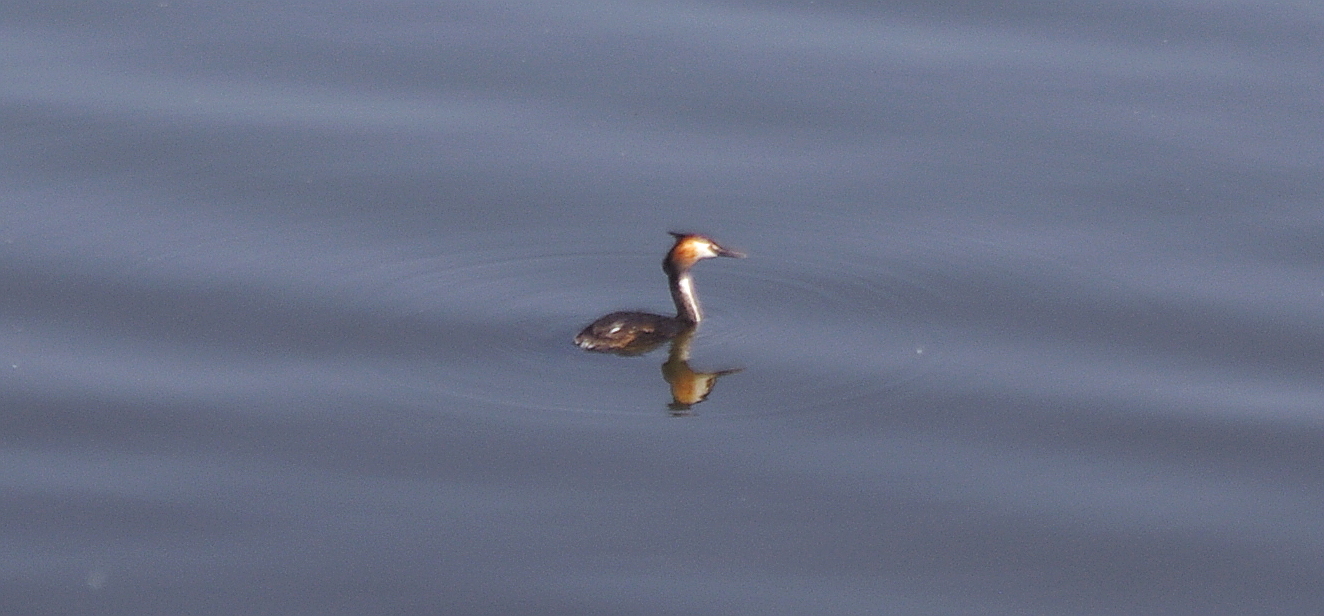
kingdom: Animalia
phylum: Chordata
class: Aves
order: Podicipediformes
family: Podicipedidae
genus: Podiceps
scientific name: Podiceps cristatus
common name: Great crested grebe
